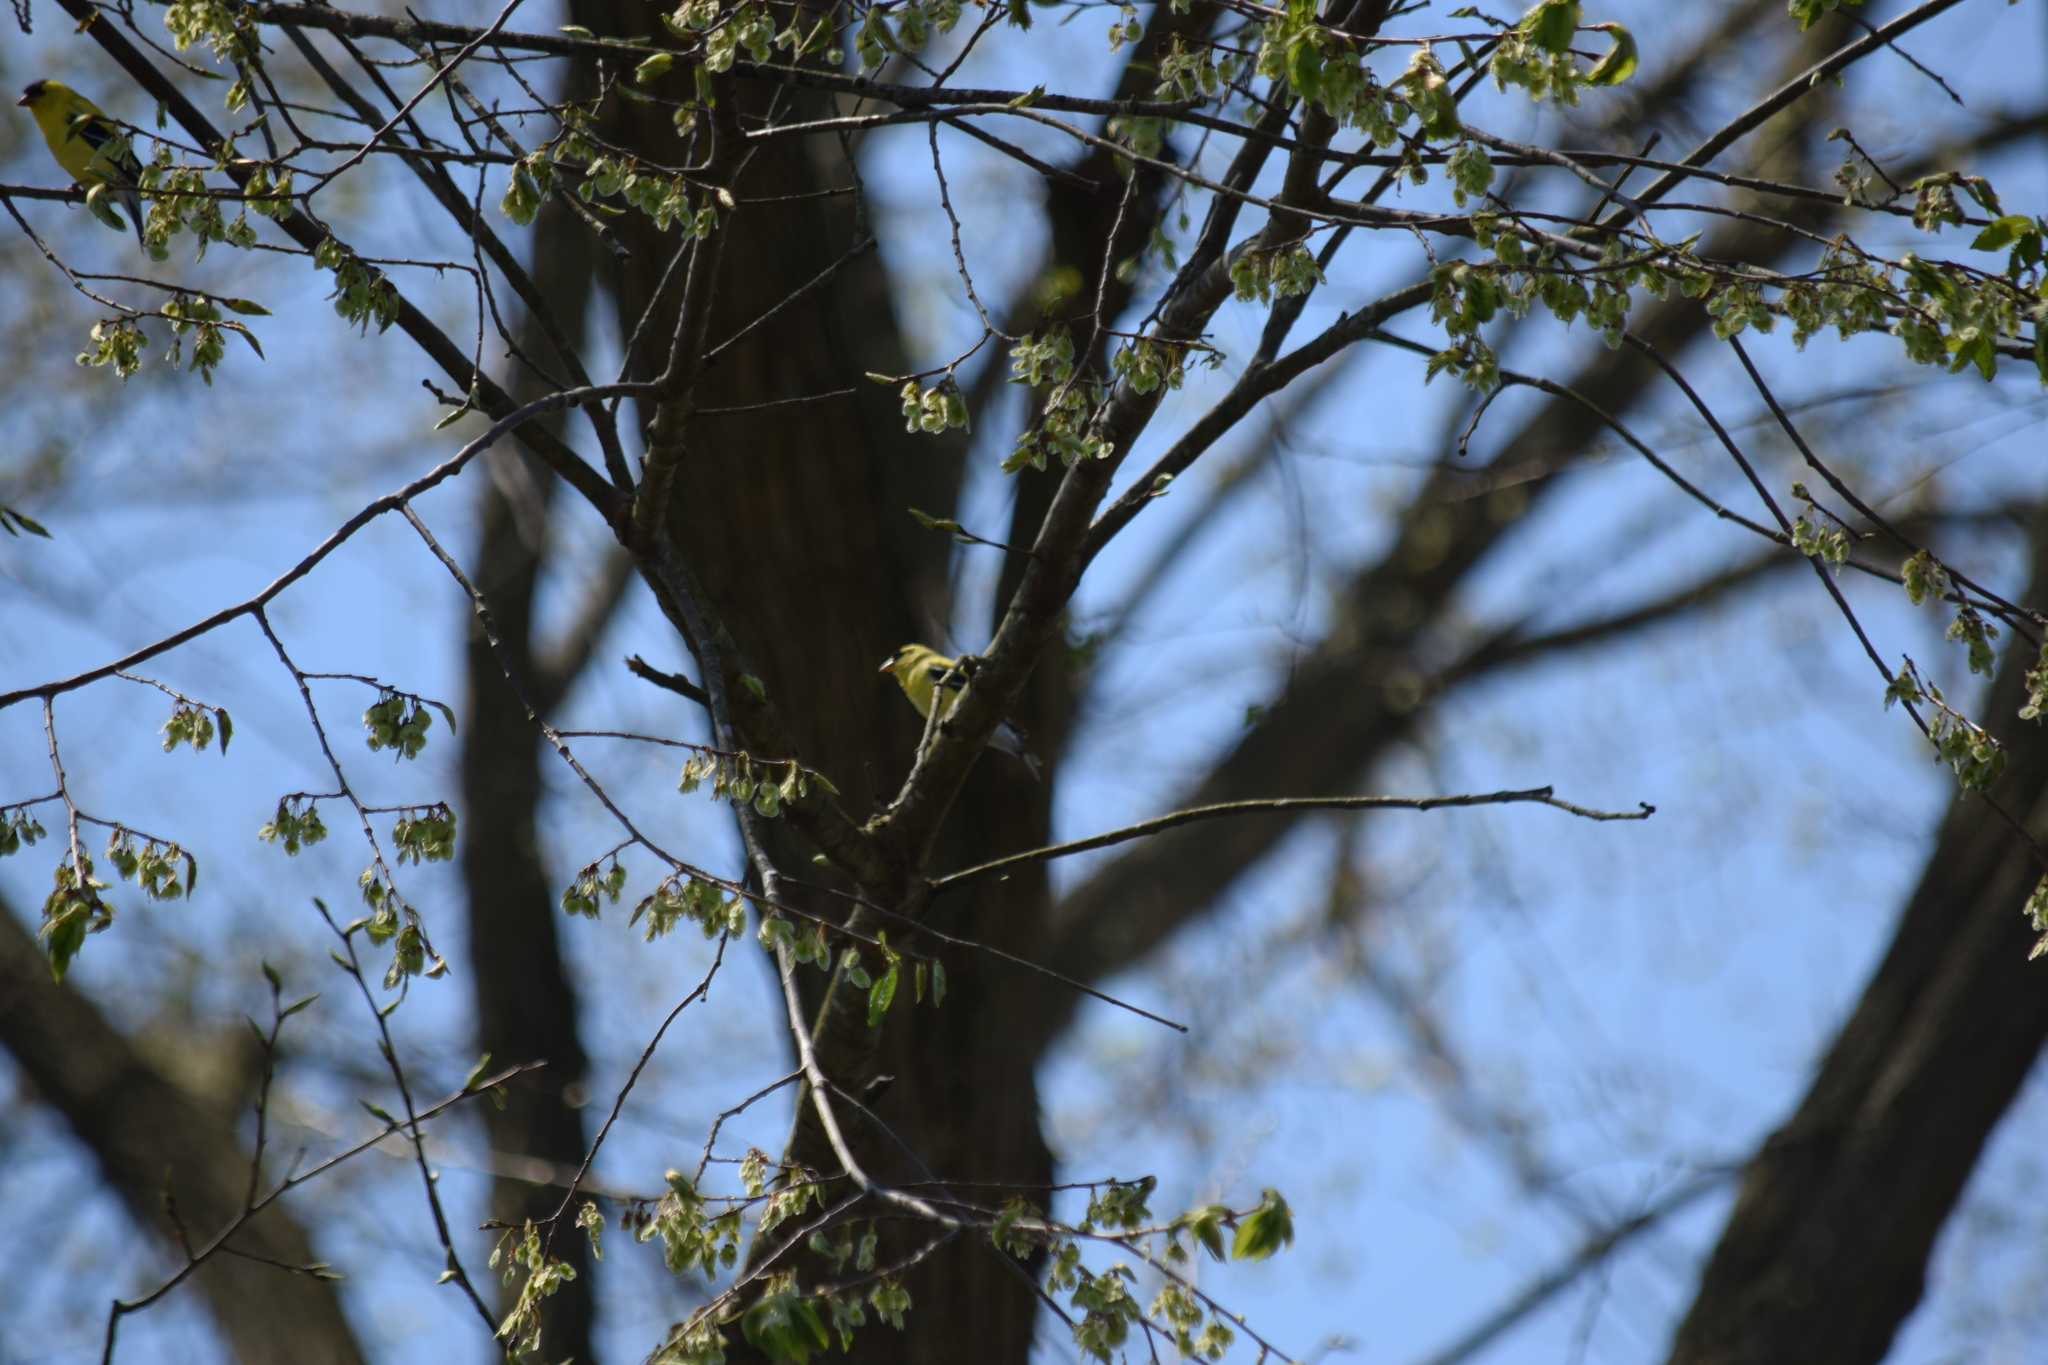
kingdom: Animalia
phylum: Chordata
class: Aves
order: Passeriformes
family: Fringillidae
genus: Spinus
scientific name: Spinus tristis
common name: American goldfinch
